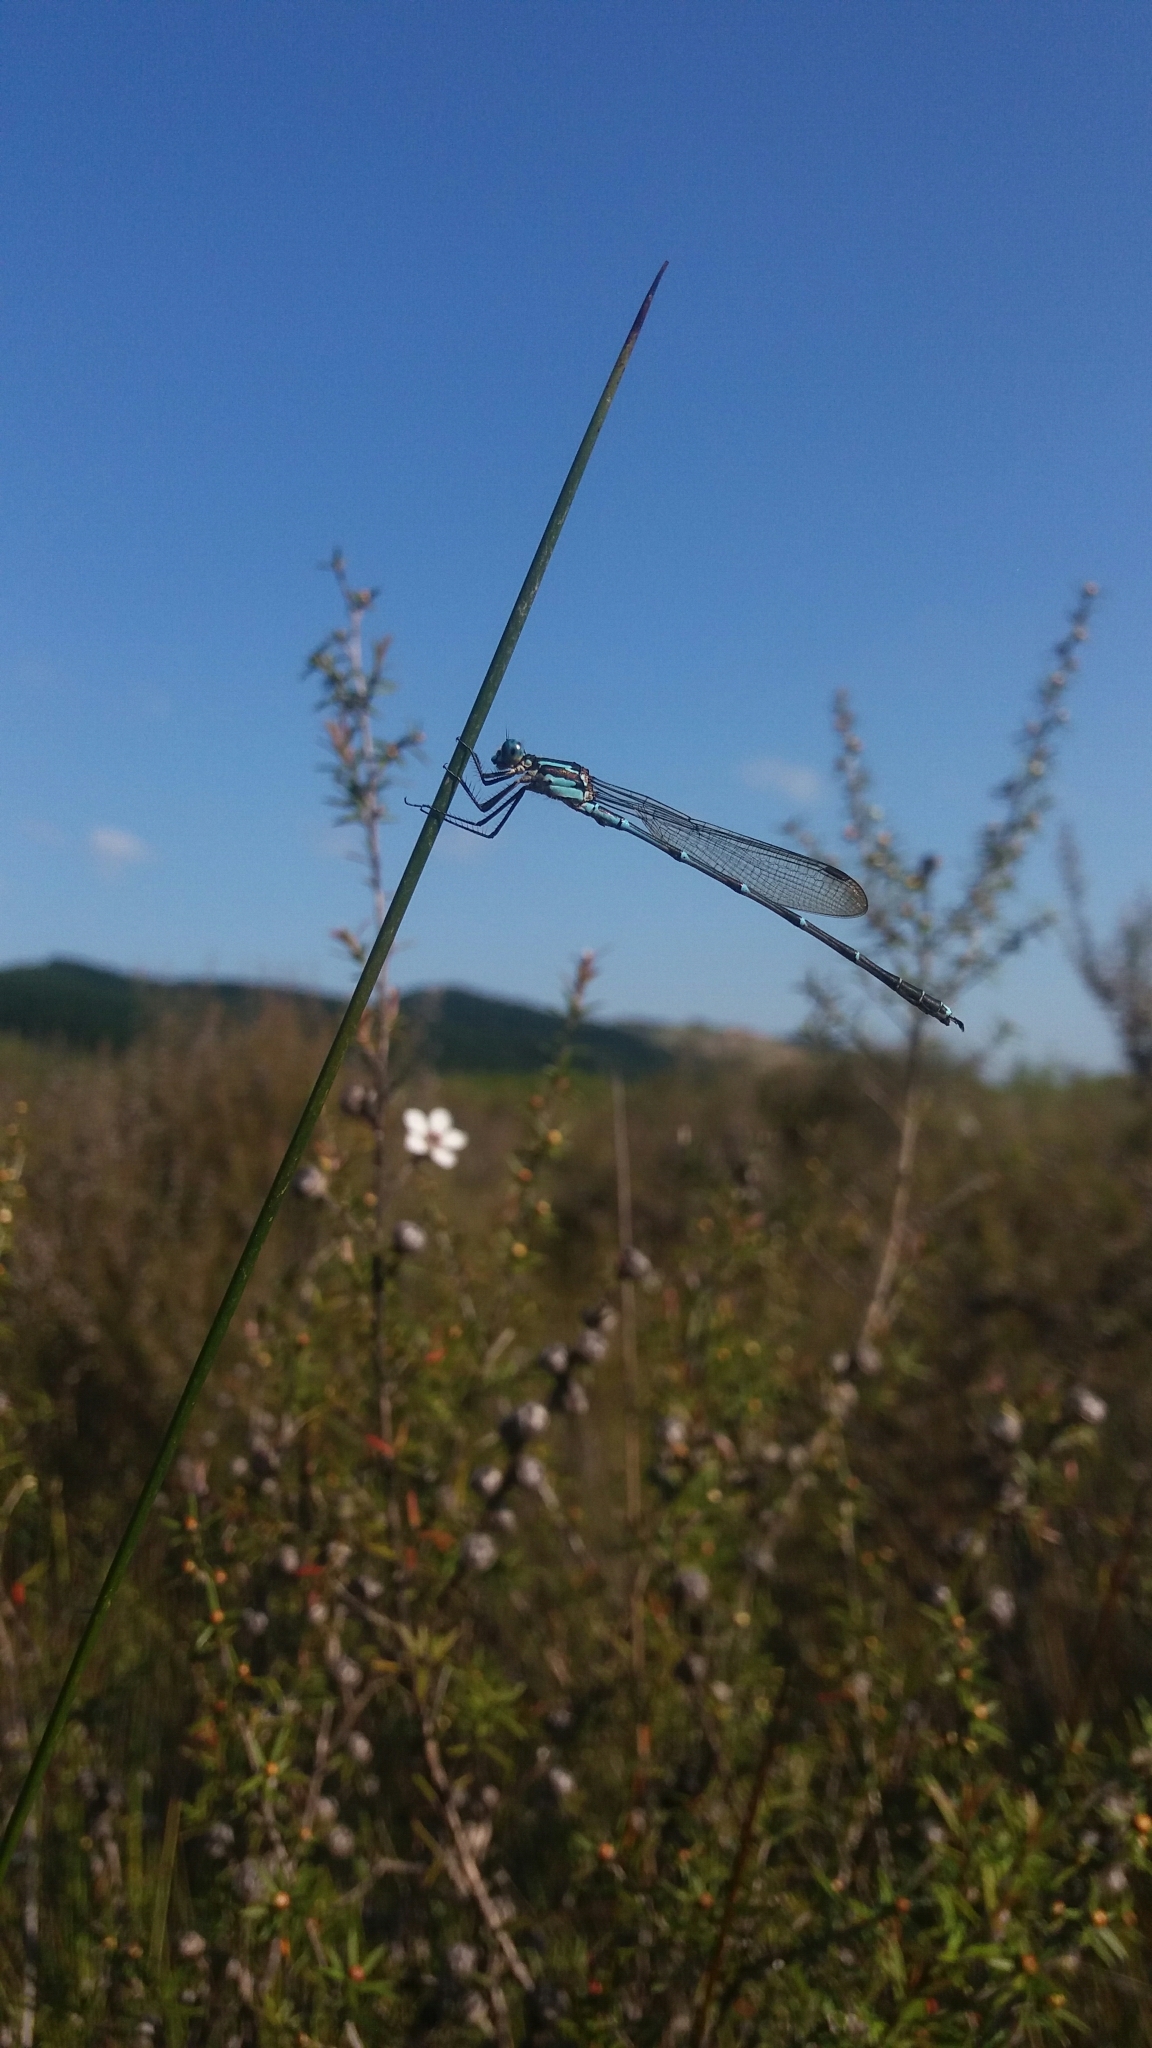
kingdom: Animalia
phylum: Arthropoda
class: Insecta
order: Odonata
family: Lestidae
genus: Austrolestes
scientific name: Austrolestes colensonis
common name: Blue damselfly
